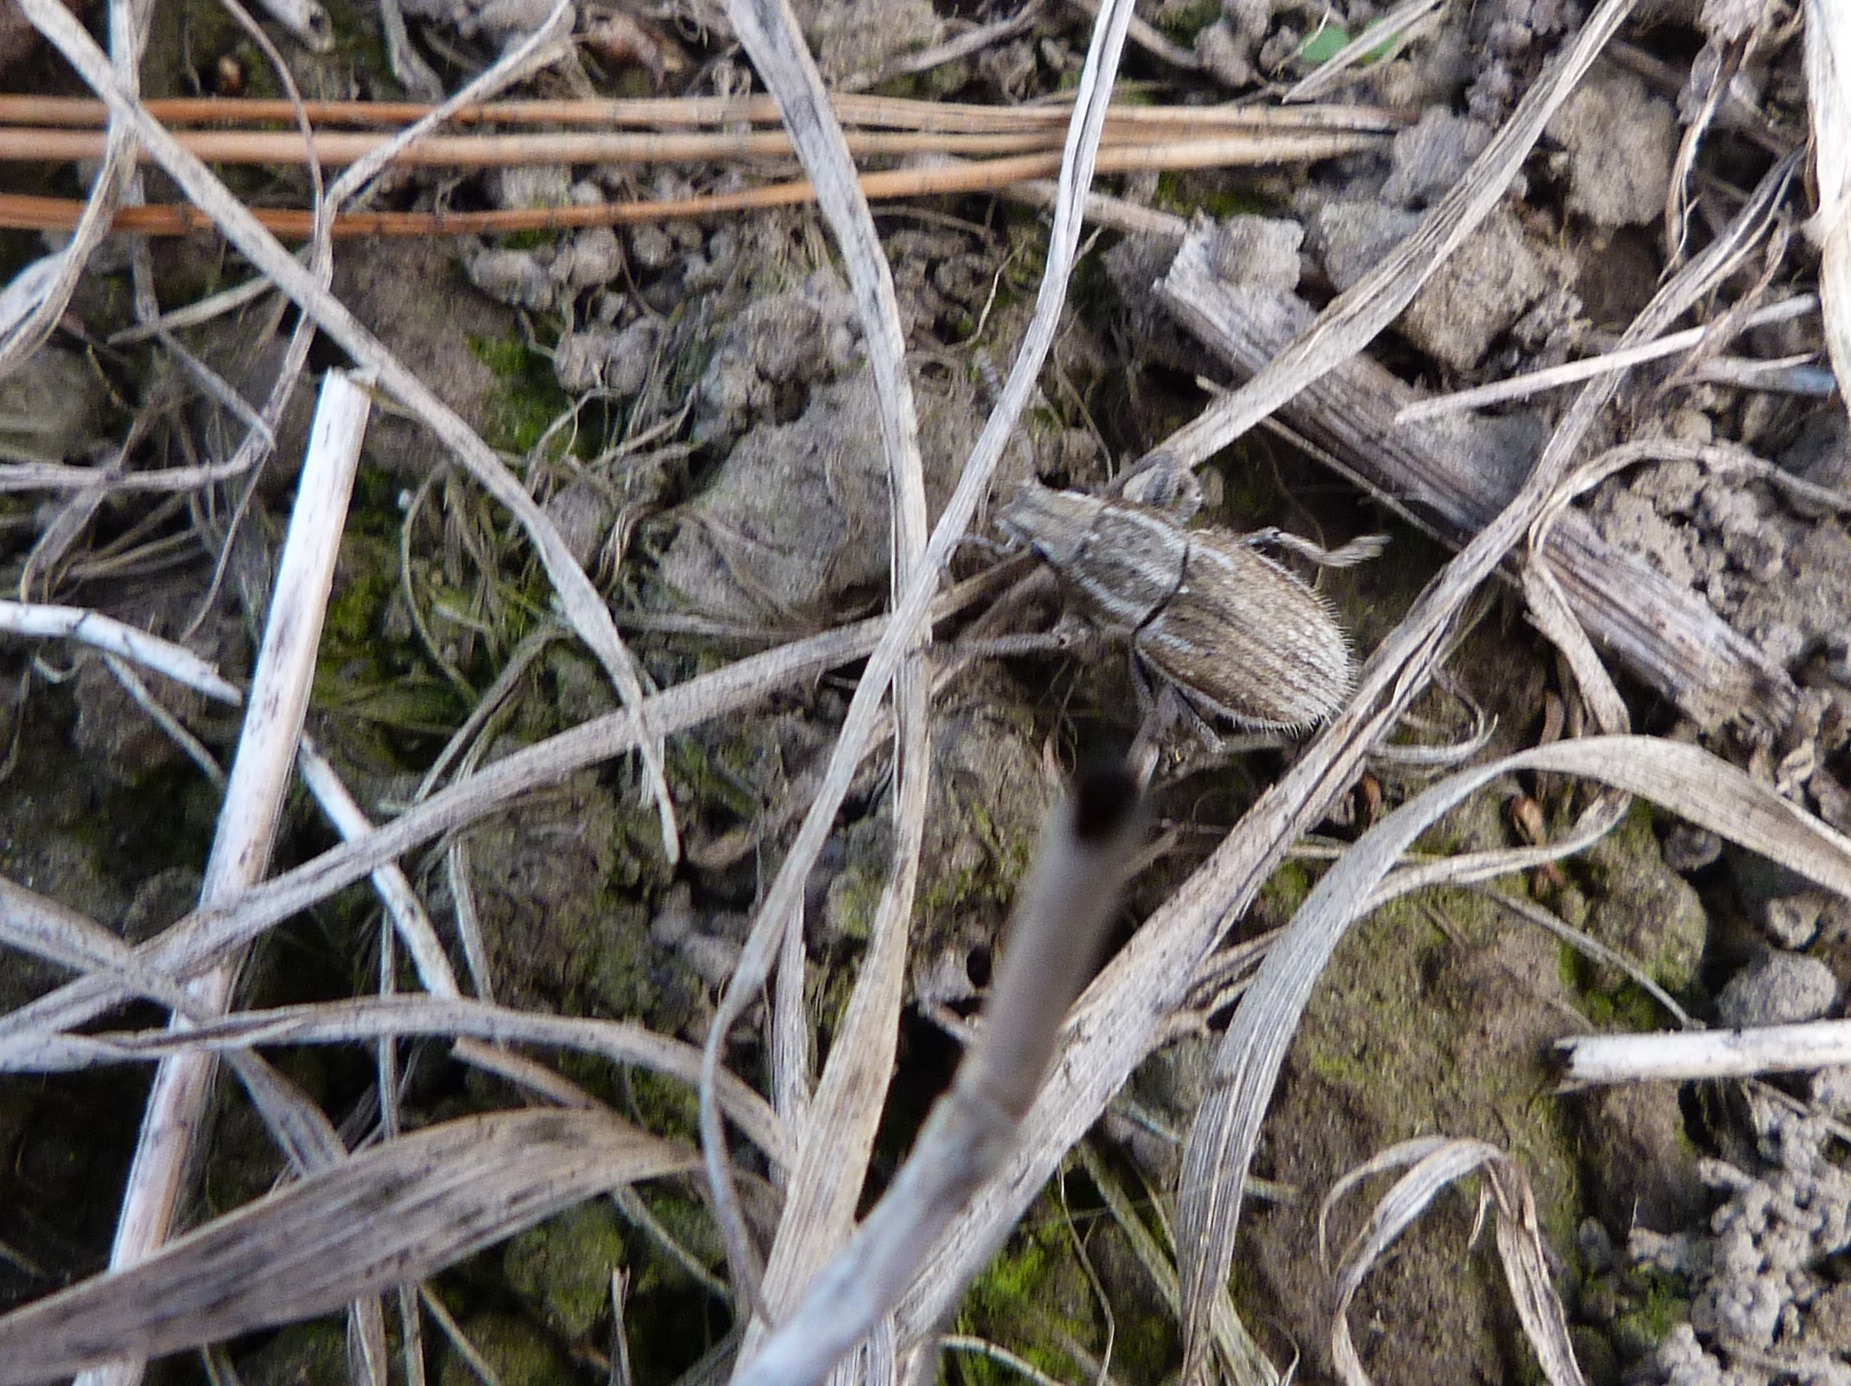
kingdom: Animalia
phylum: Arthropoda
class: Insecta
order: Coleoptera
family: Curculionidae
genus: Naupactus
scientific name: Naupactus leucoloma
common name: Whitefringed beetle
